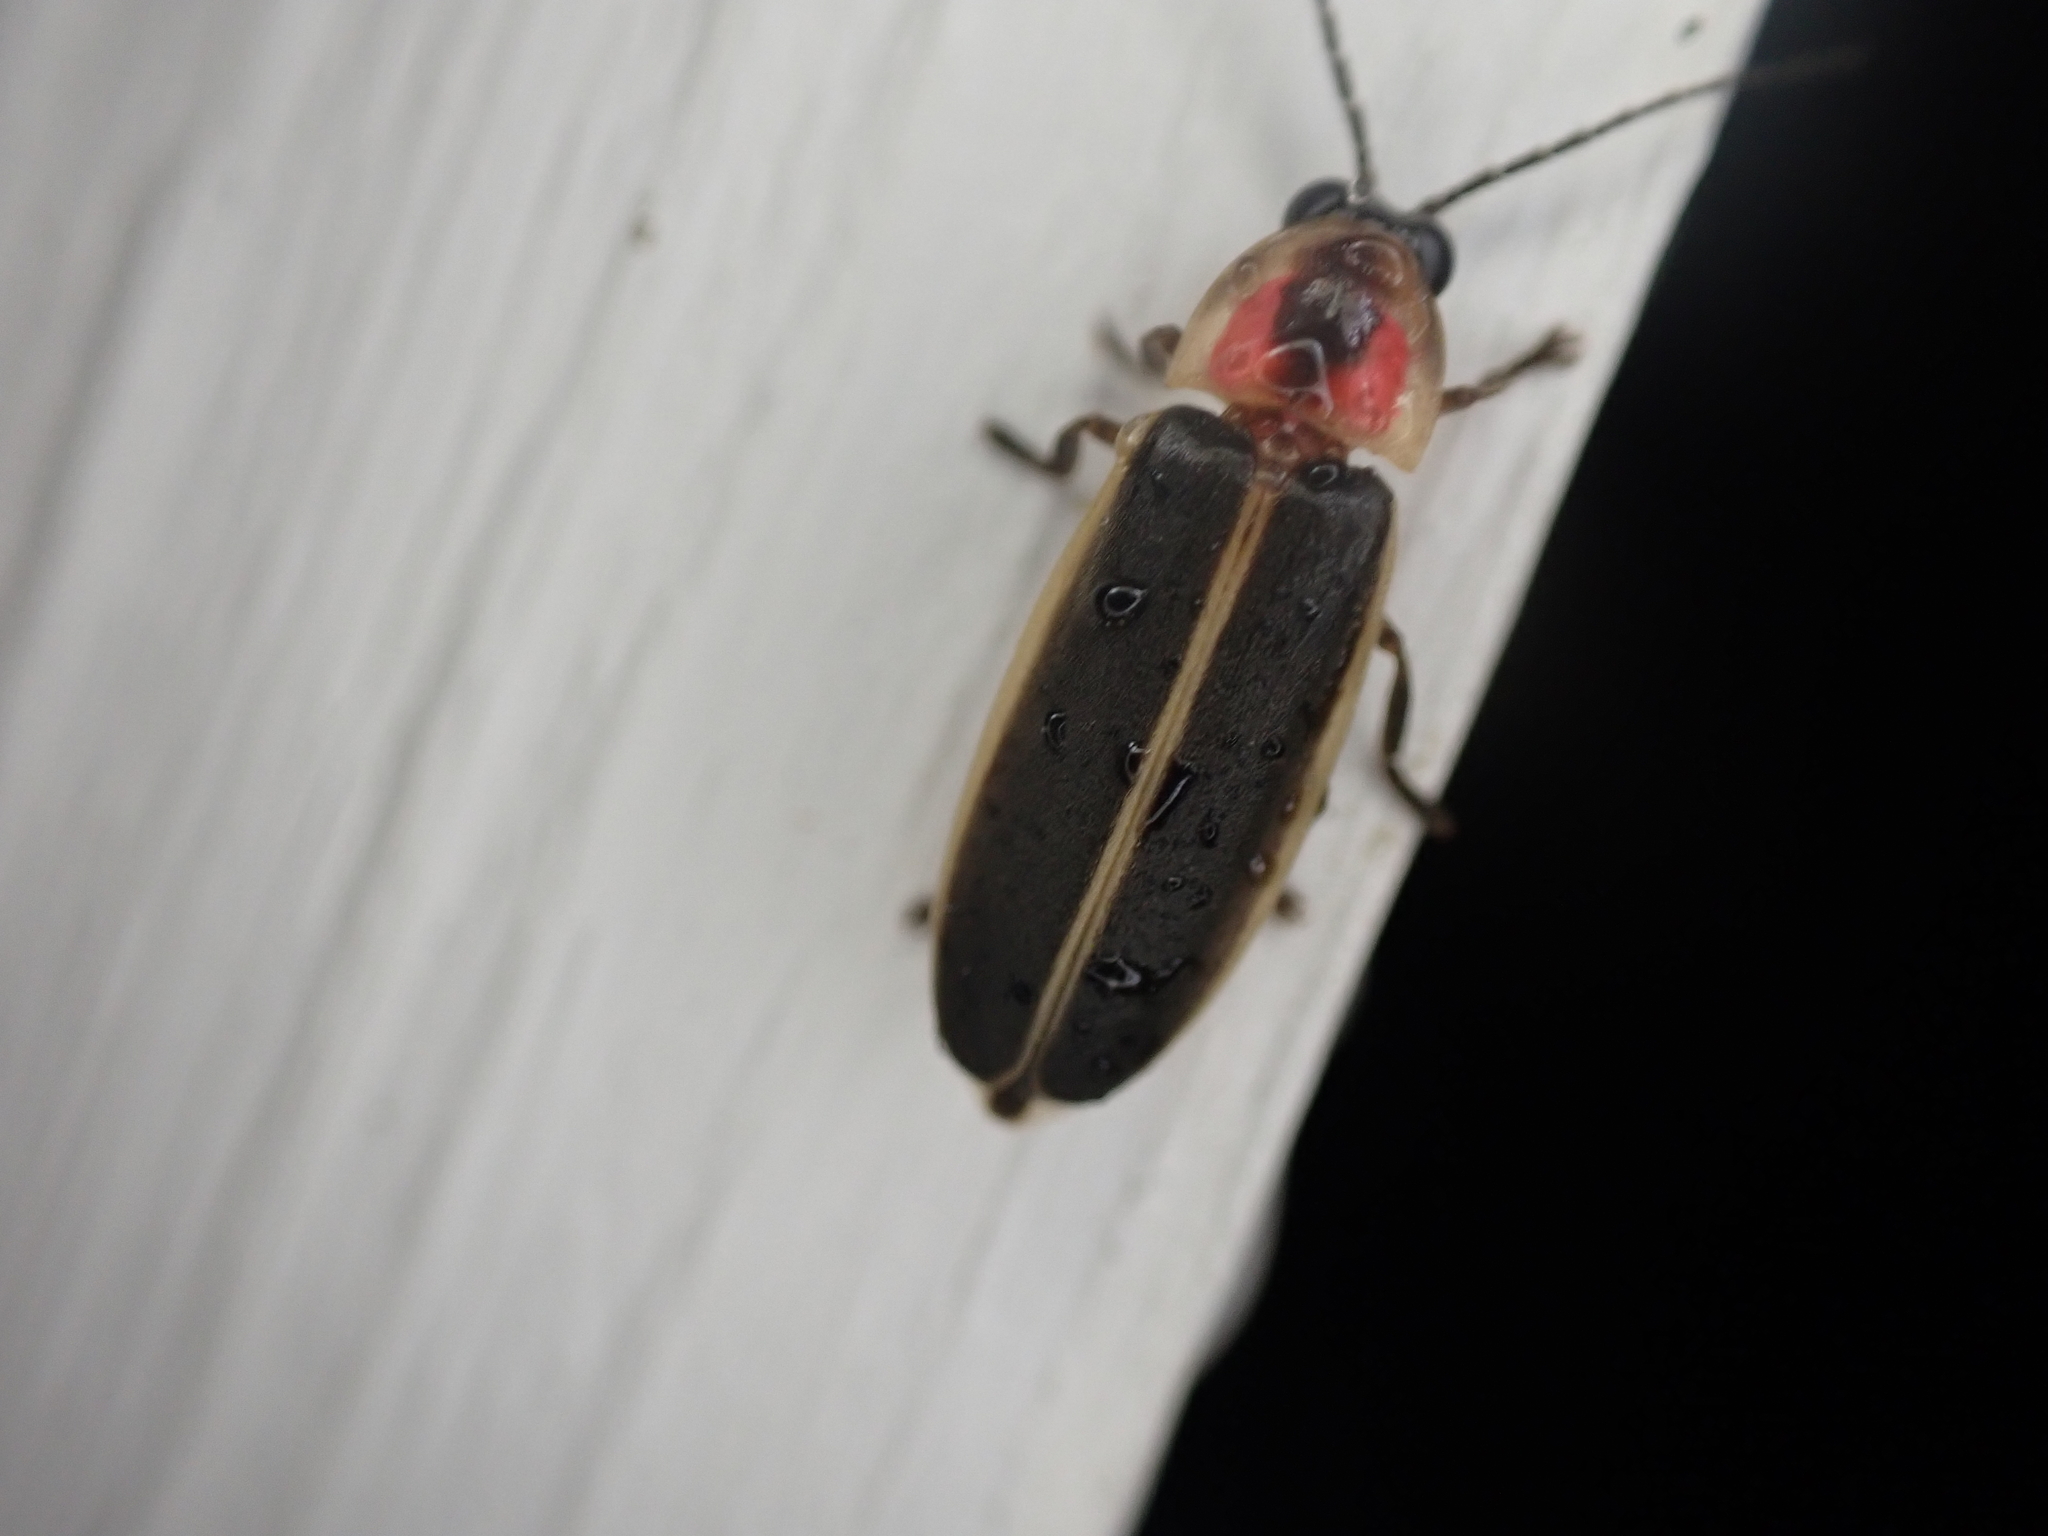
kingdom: Animalia
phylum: Arthropoda
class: Insecta
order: Coleoptera
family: Lampyridae
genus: Photinus
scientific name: Photinus pyralis
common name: Big dipper firefly
